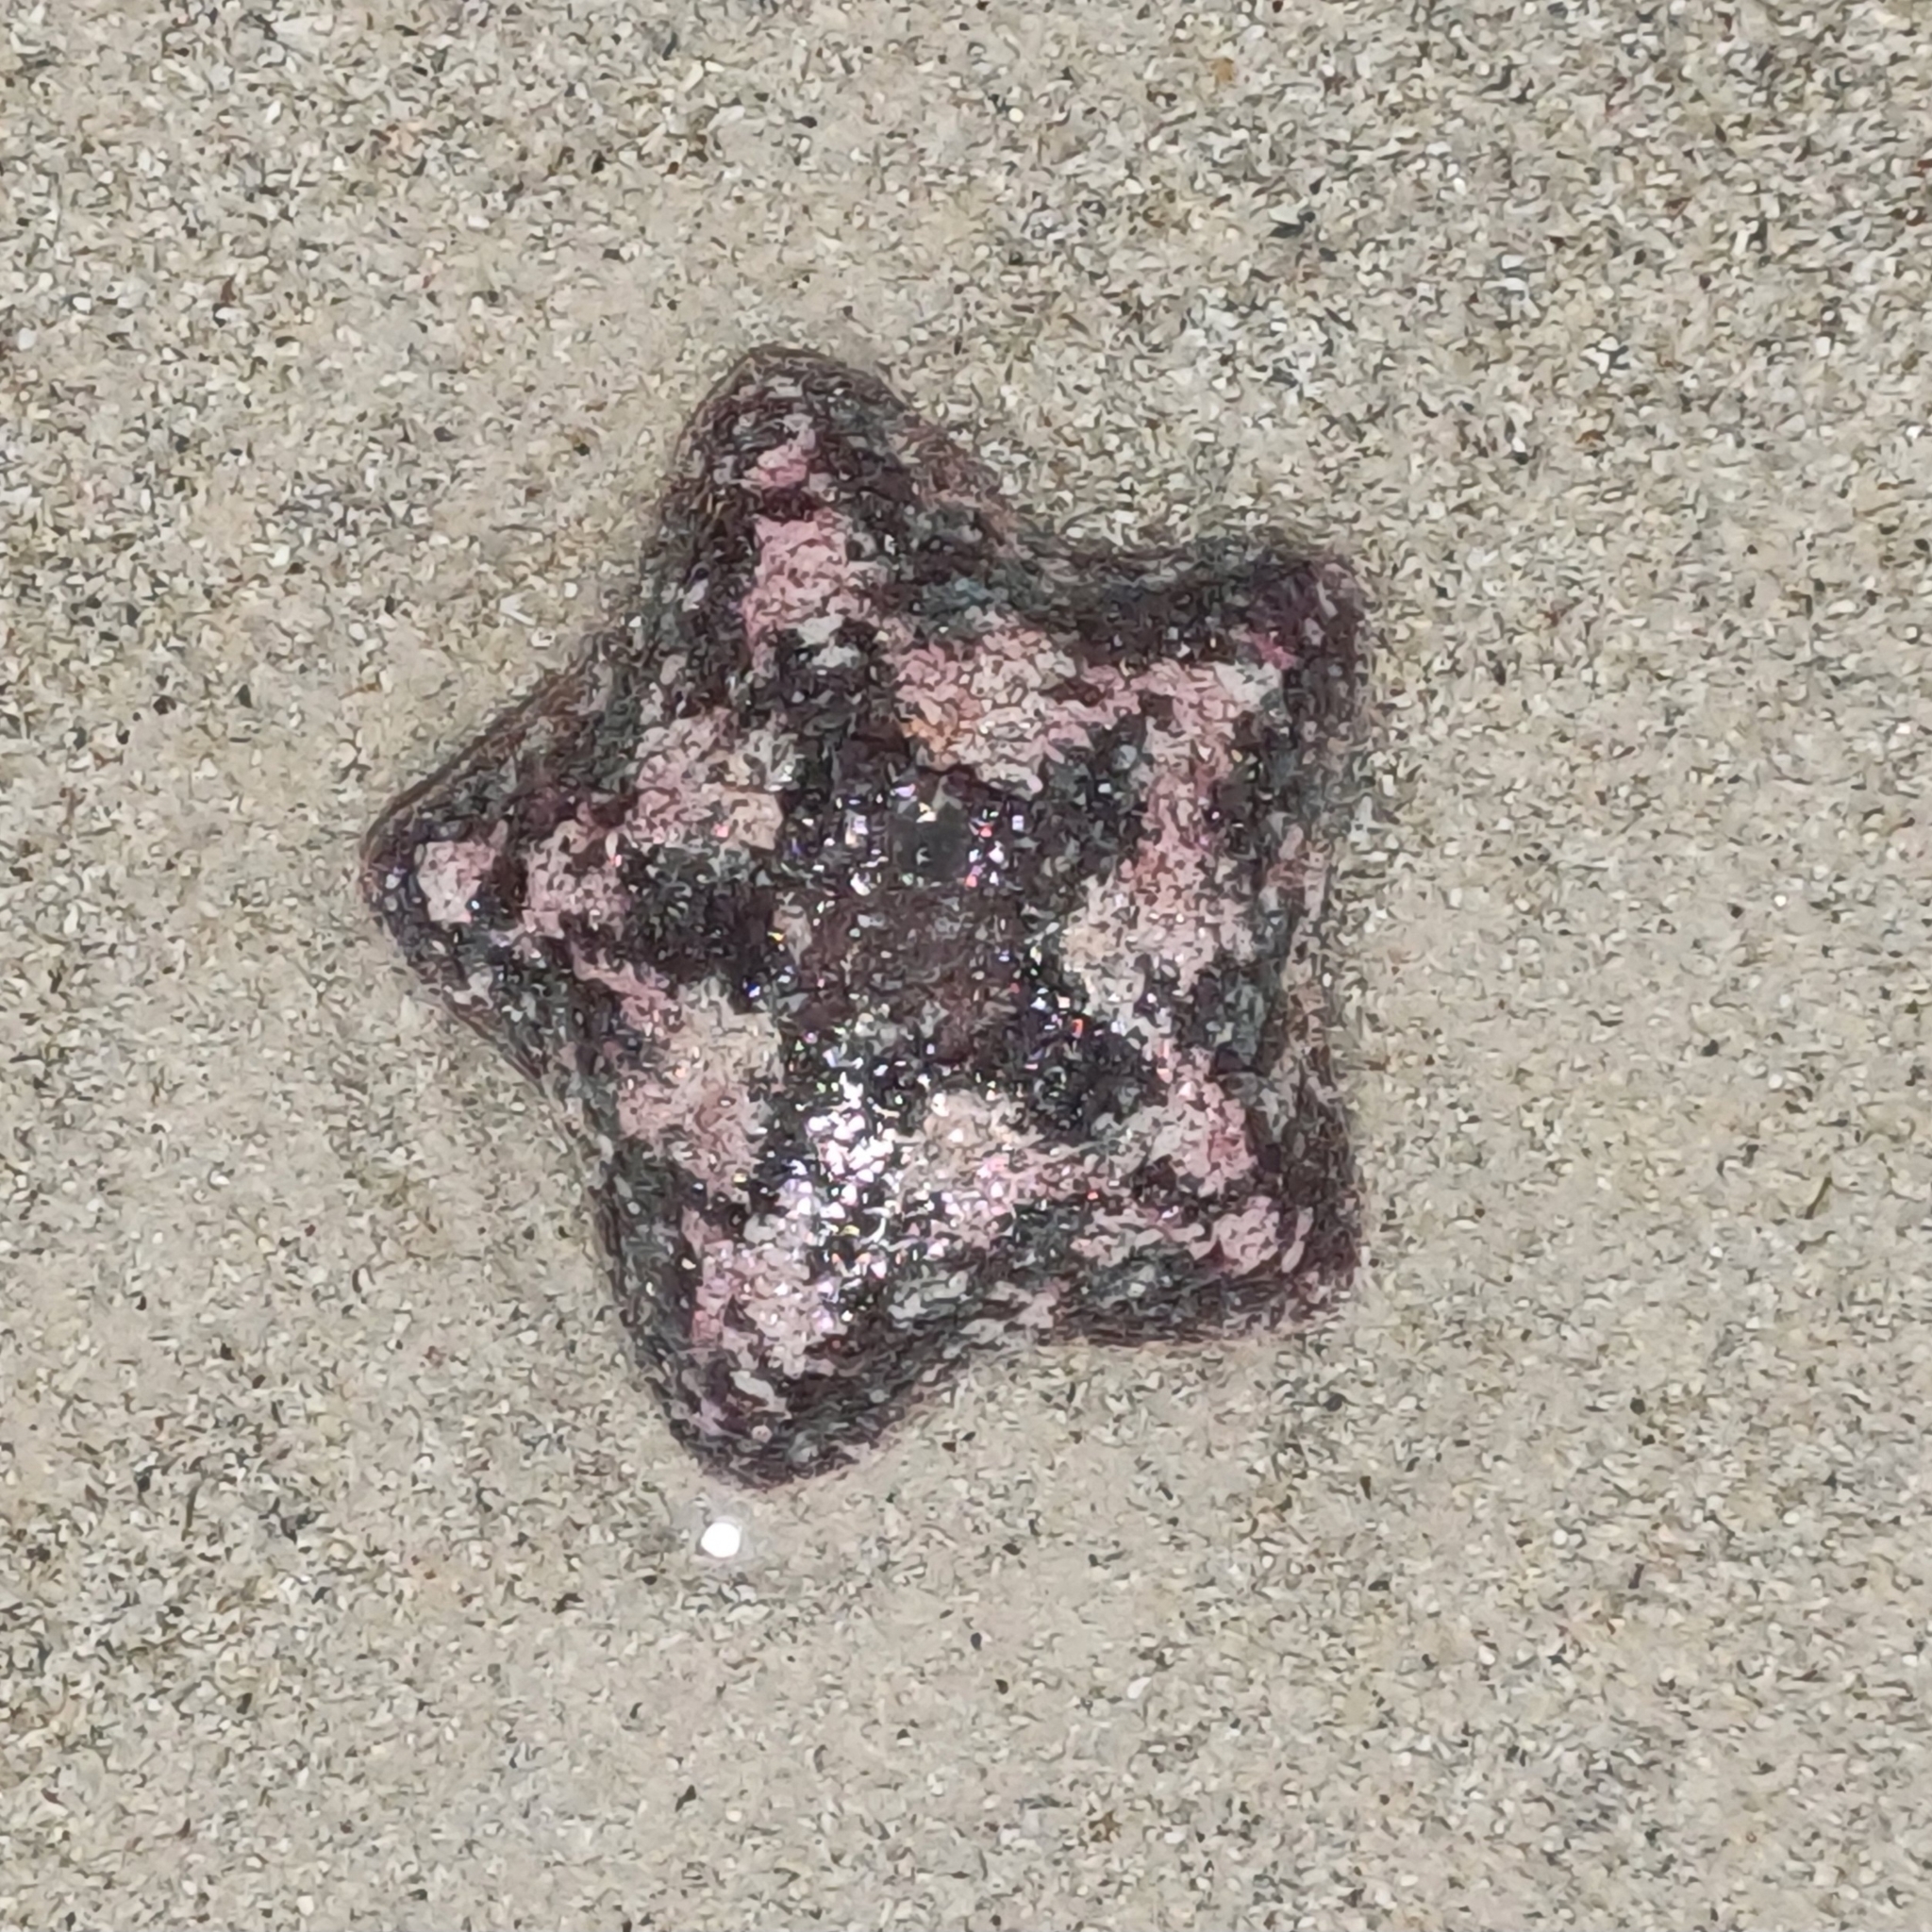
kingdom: Animalia
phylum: Echinodermata
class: Asteroidea
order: Valvatida
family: Asterinidae
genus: Parvulastra
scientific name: Parvulastra exigua
